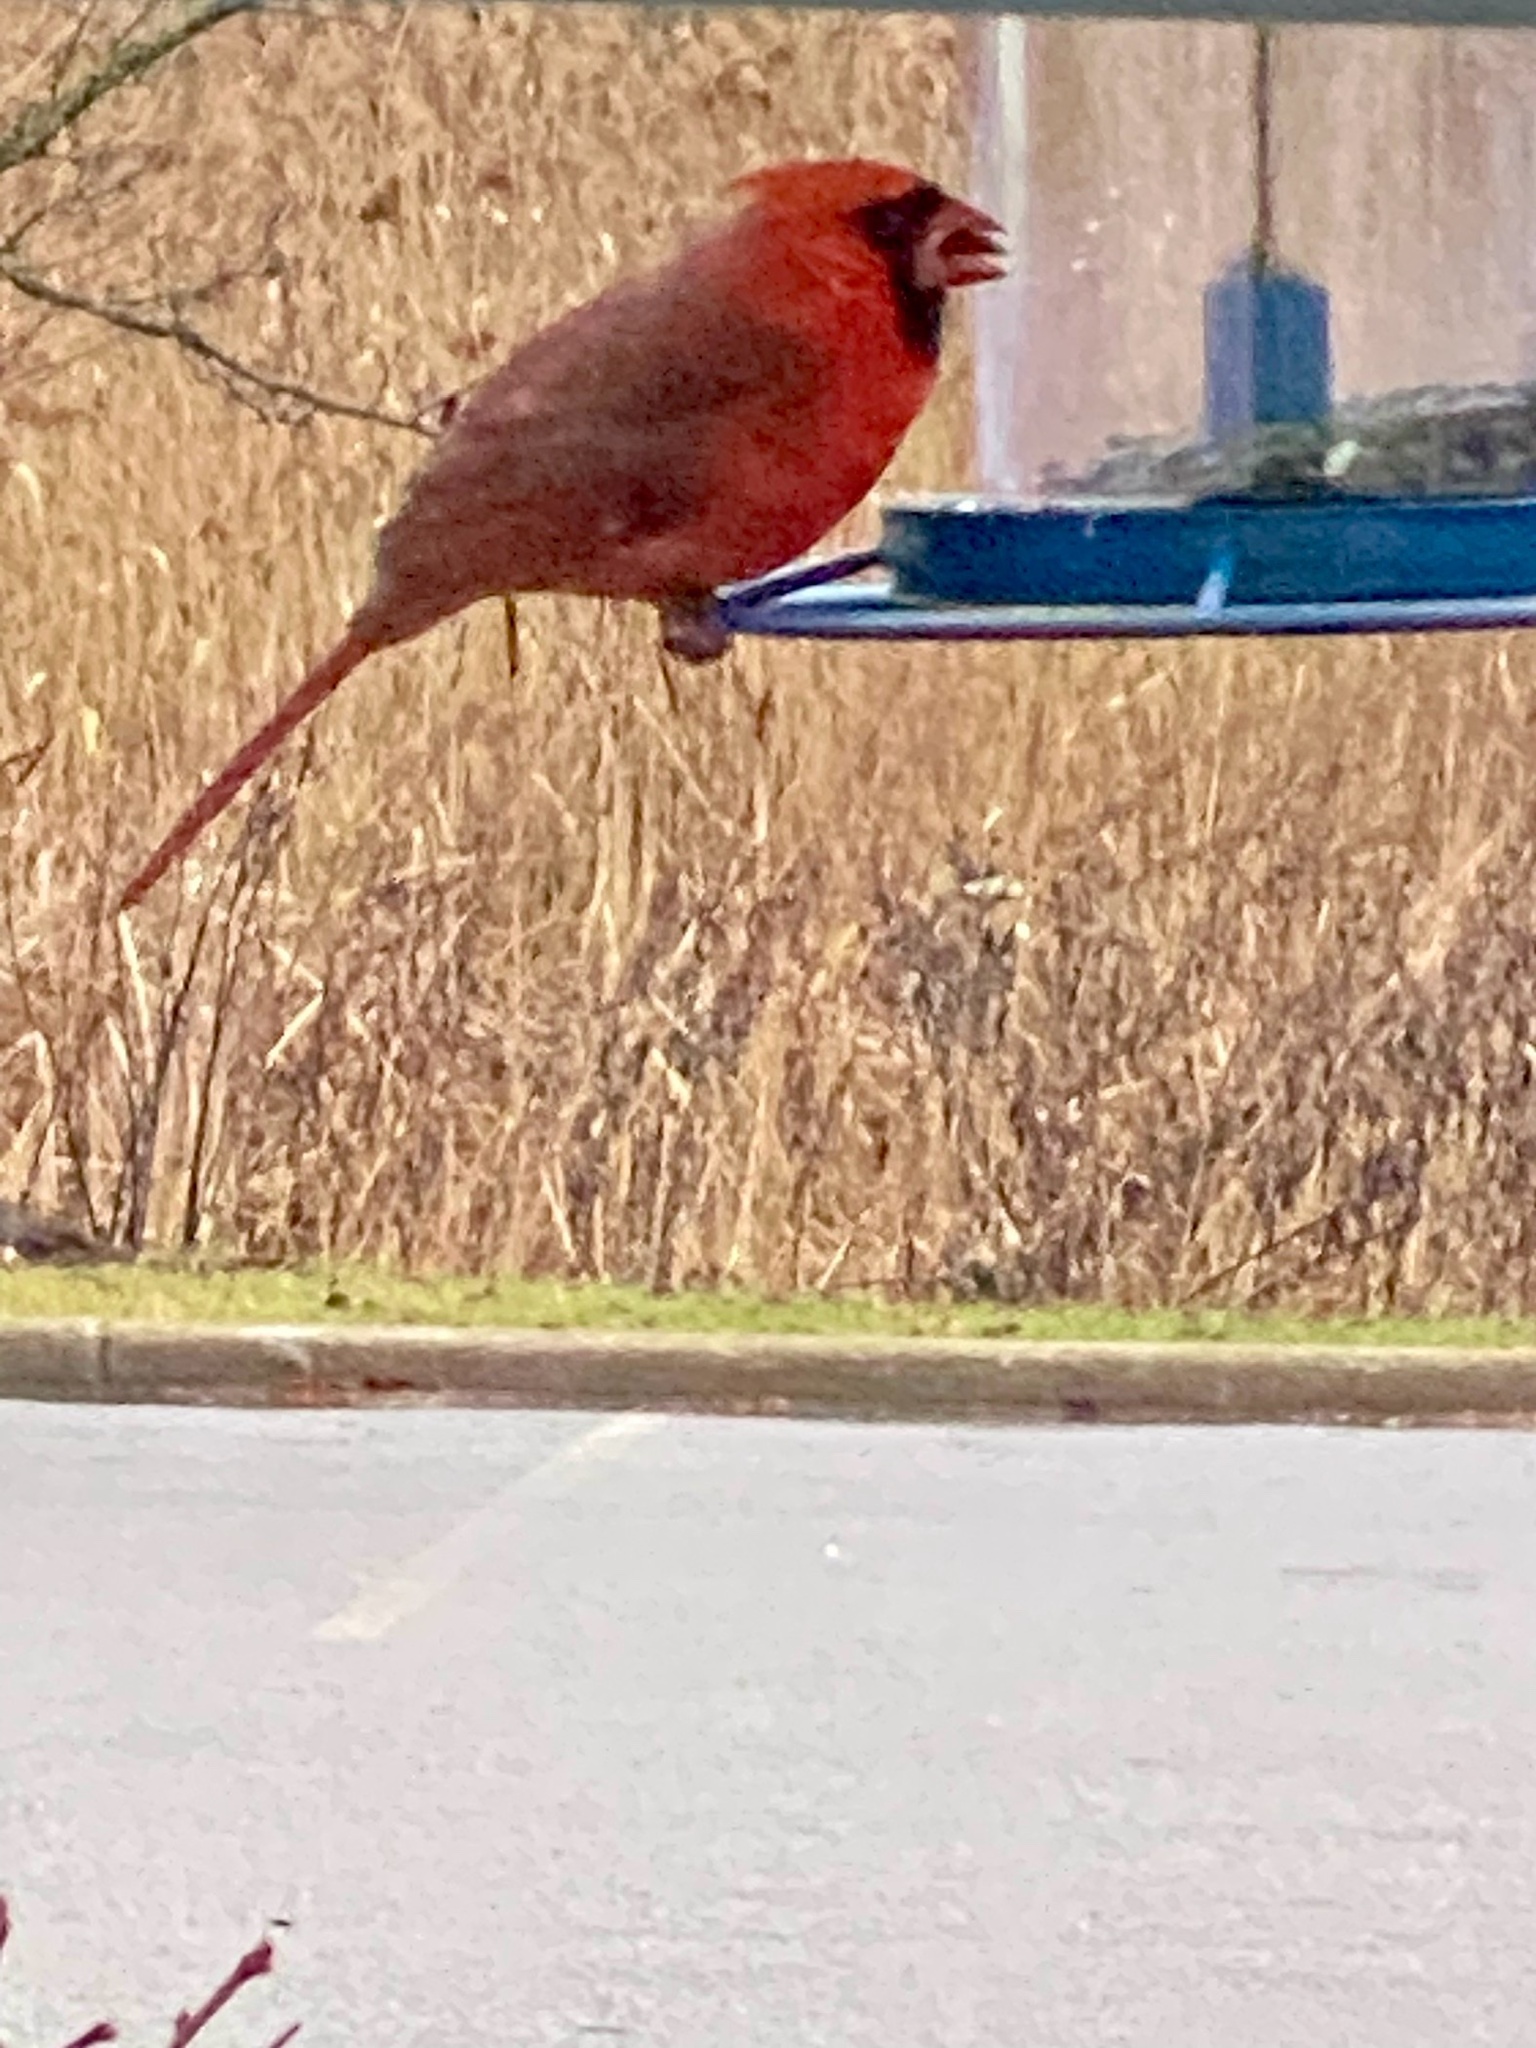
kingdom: Animalia
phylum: Chordata
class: Aves
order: Passeriformes
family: Cardinalidae
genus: Cardinalis
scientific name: Cardinalis cardinalis
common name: Northern cardinal
